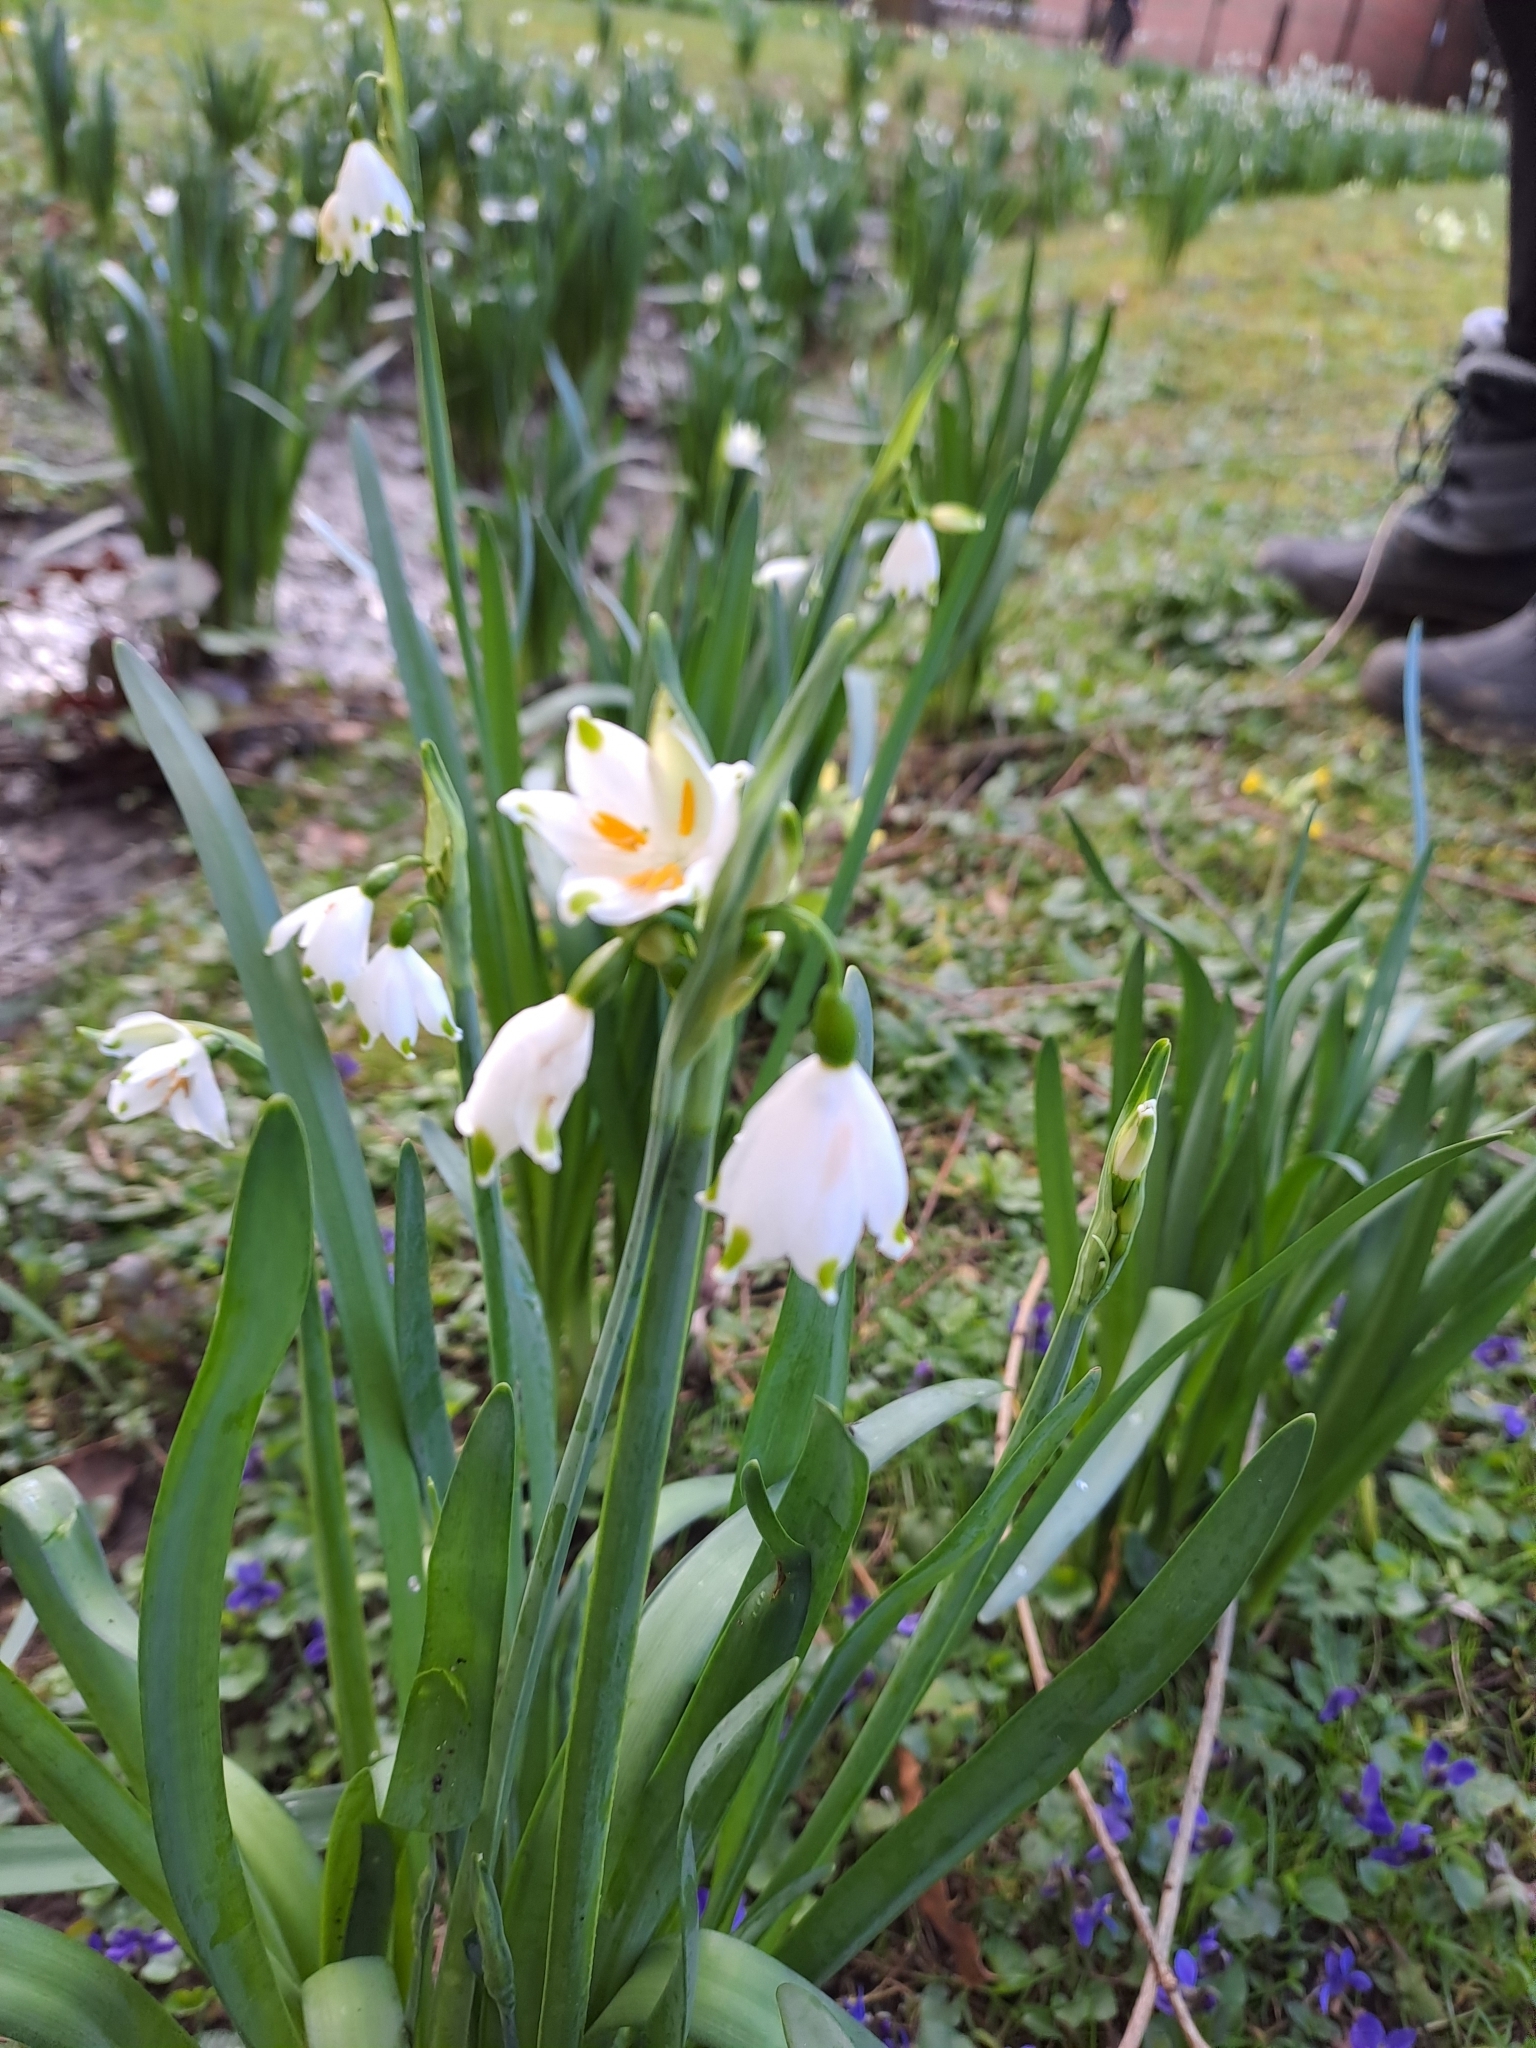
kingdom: Plantae
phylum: Tracheophyta
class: Liliopsida
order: Asparagales
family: Amaryllidaceae
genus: Leucojum
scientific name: Leucojum aestivum
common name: Summer snowflake
